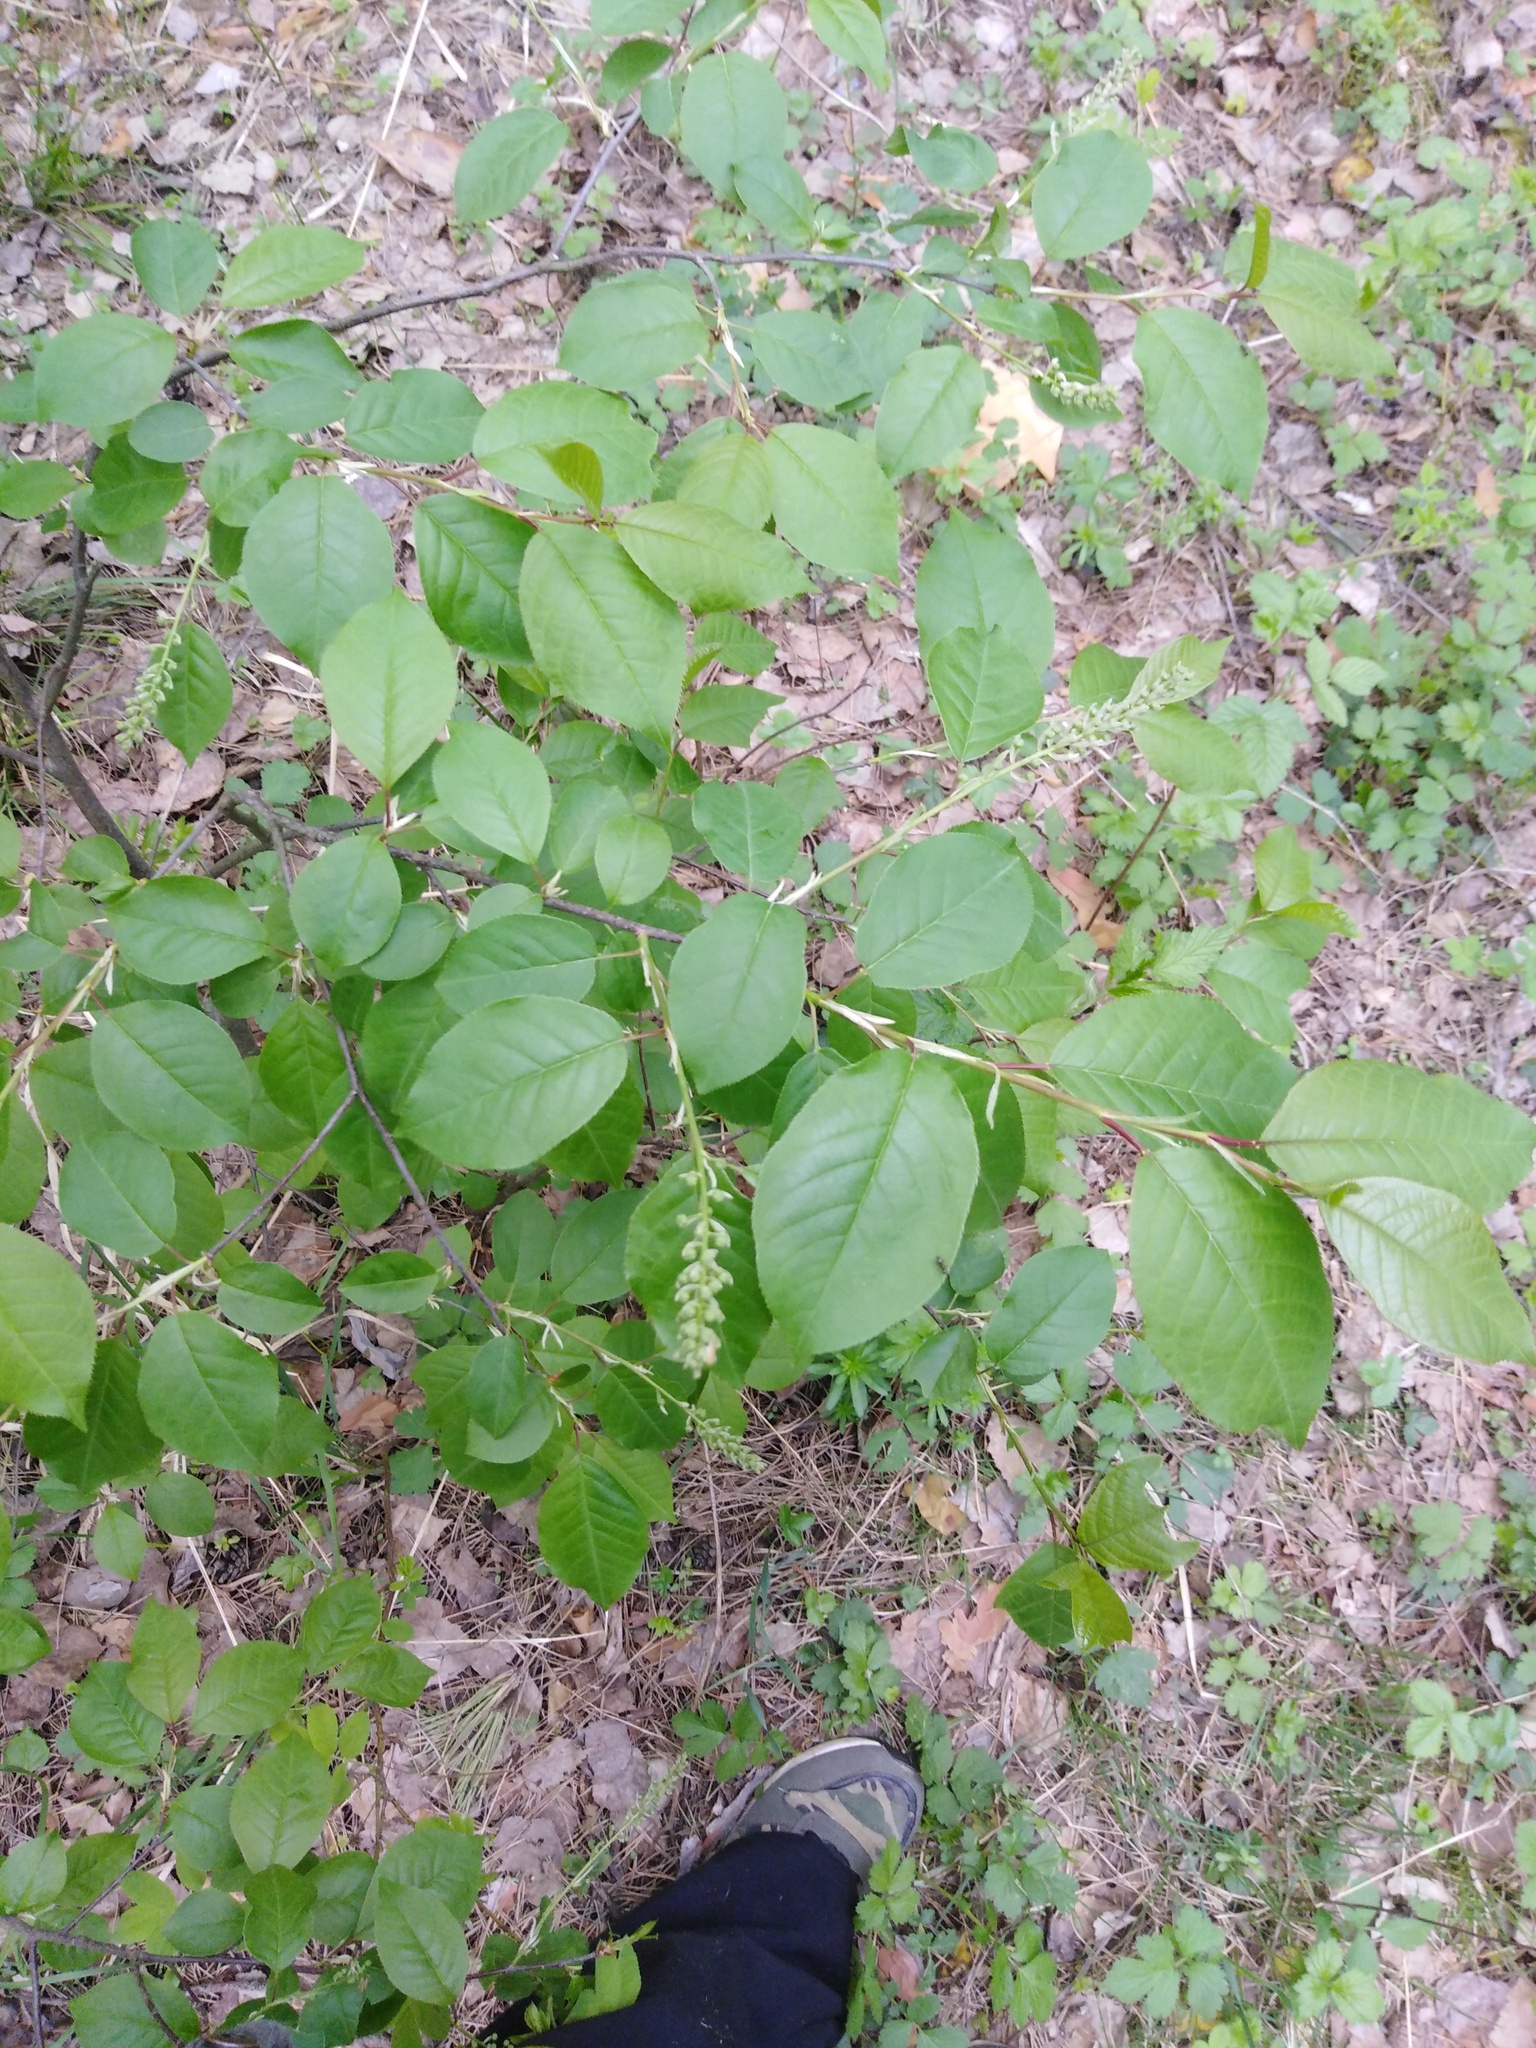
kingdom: Plantae
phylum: Tracheophyta
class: Magnoliopsida
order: Rosales
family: Rosaceae
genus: Prunus
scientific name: Prunus virginiana
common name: Chokecherry
